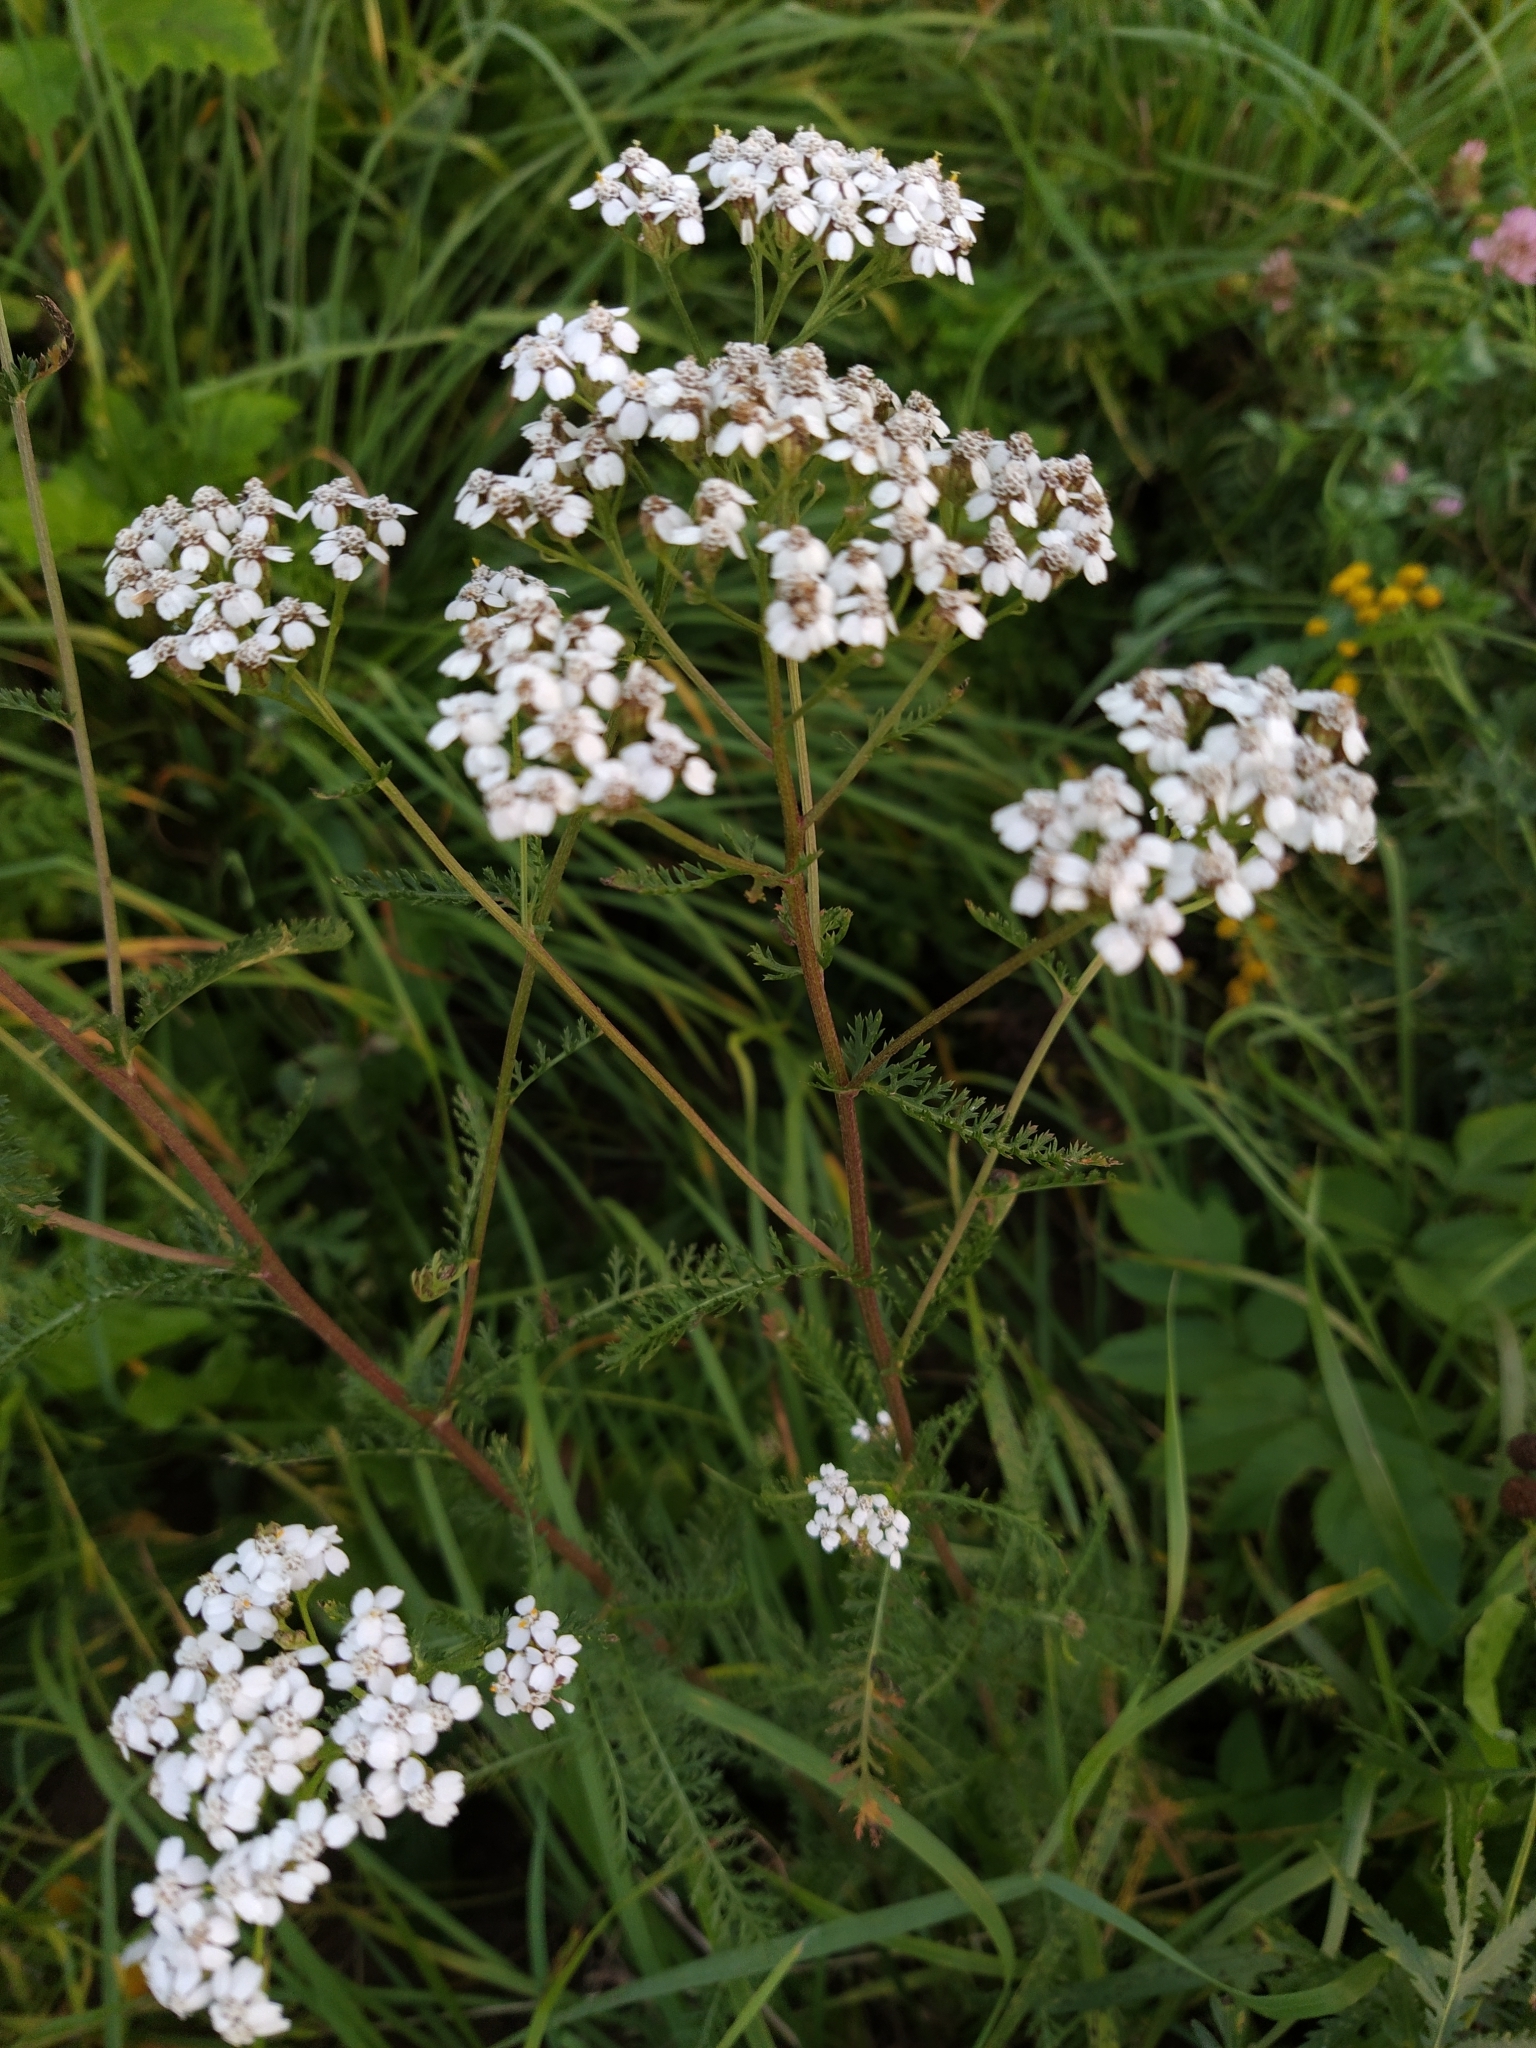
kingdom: Plantae
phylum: Tracheophyta
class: Magnoliopsida
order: Asterales
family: Asteraceae
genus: Achillea
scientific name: Achillea millefolium
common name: Yarrow
